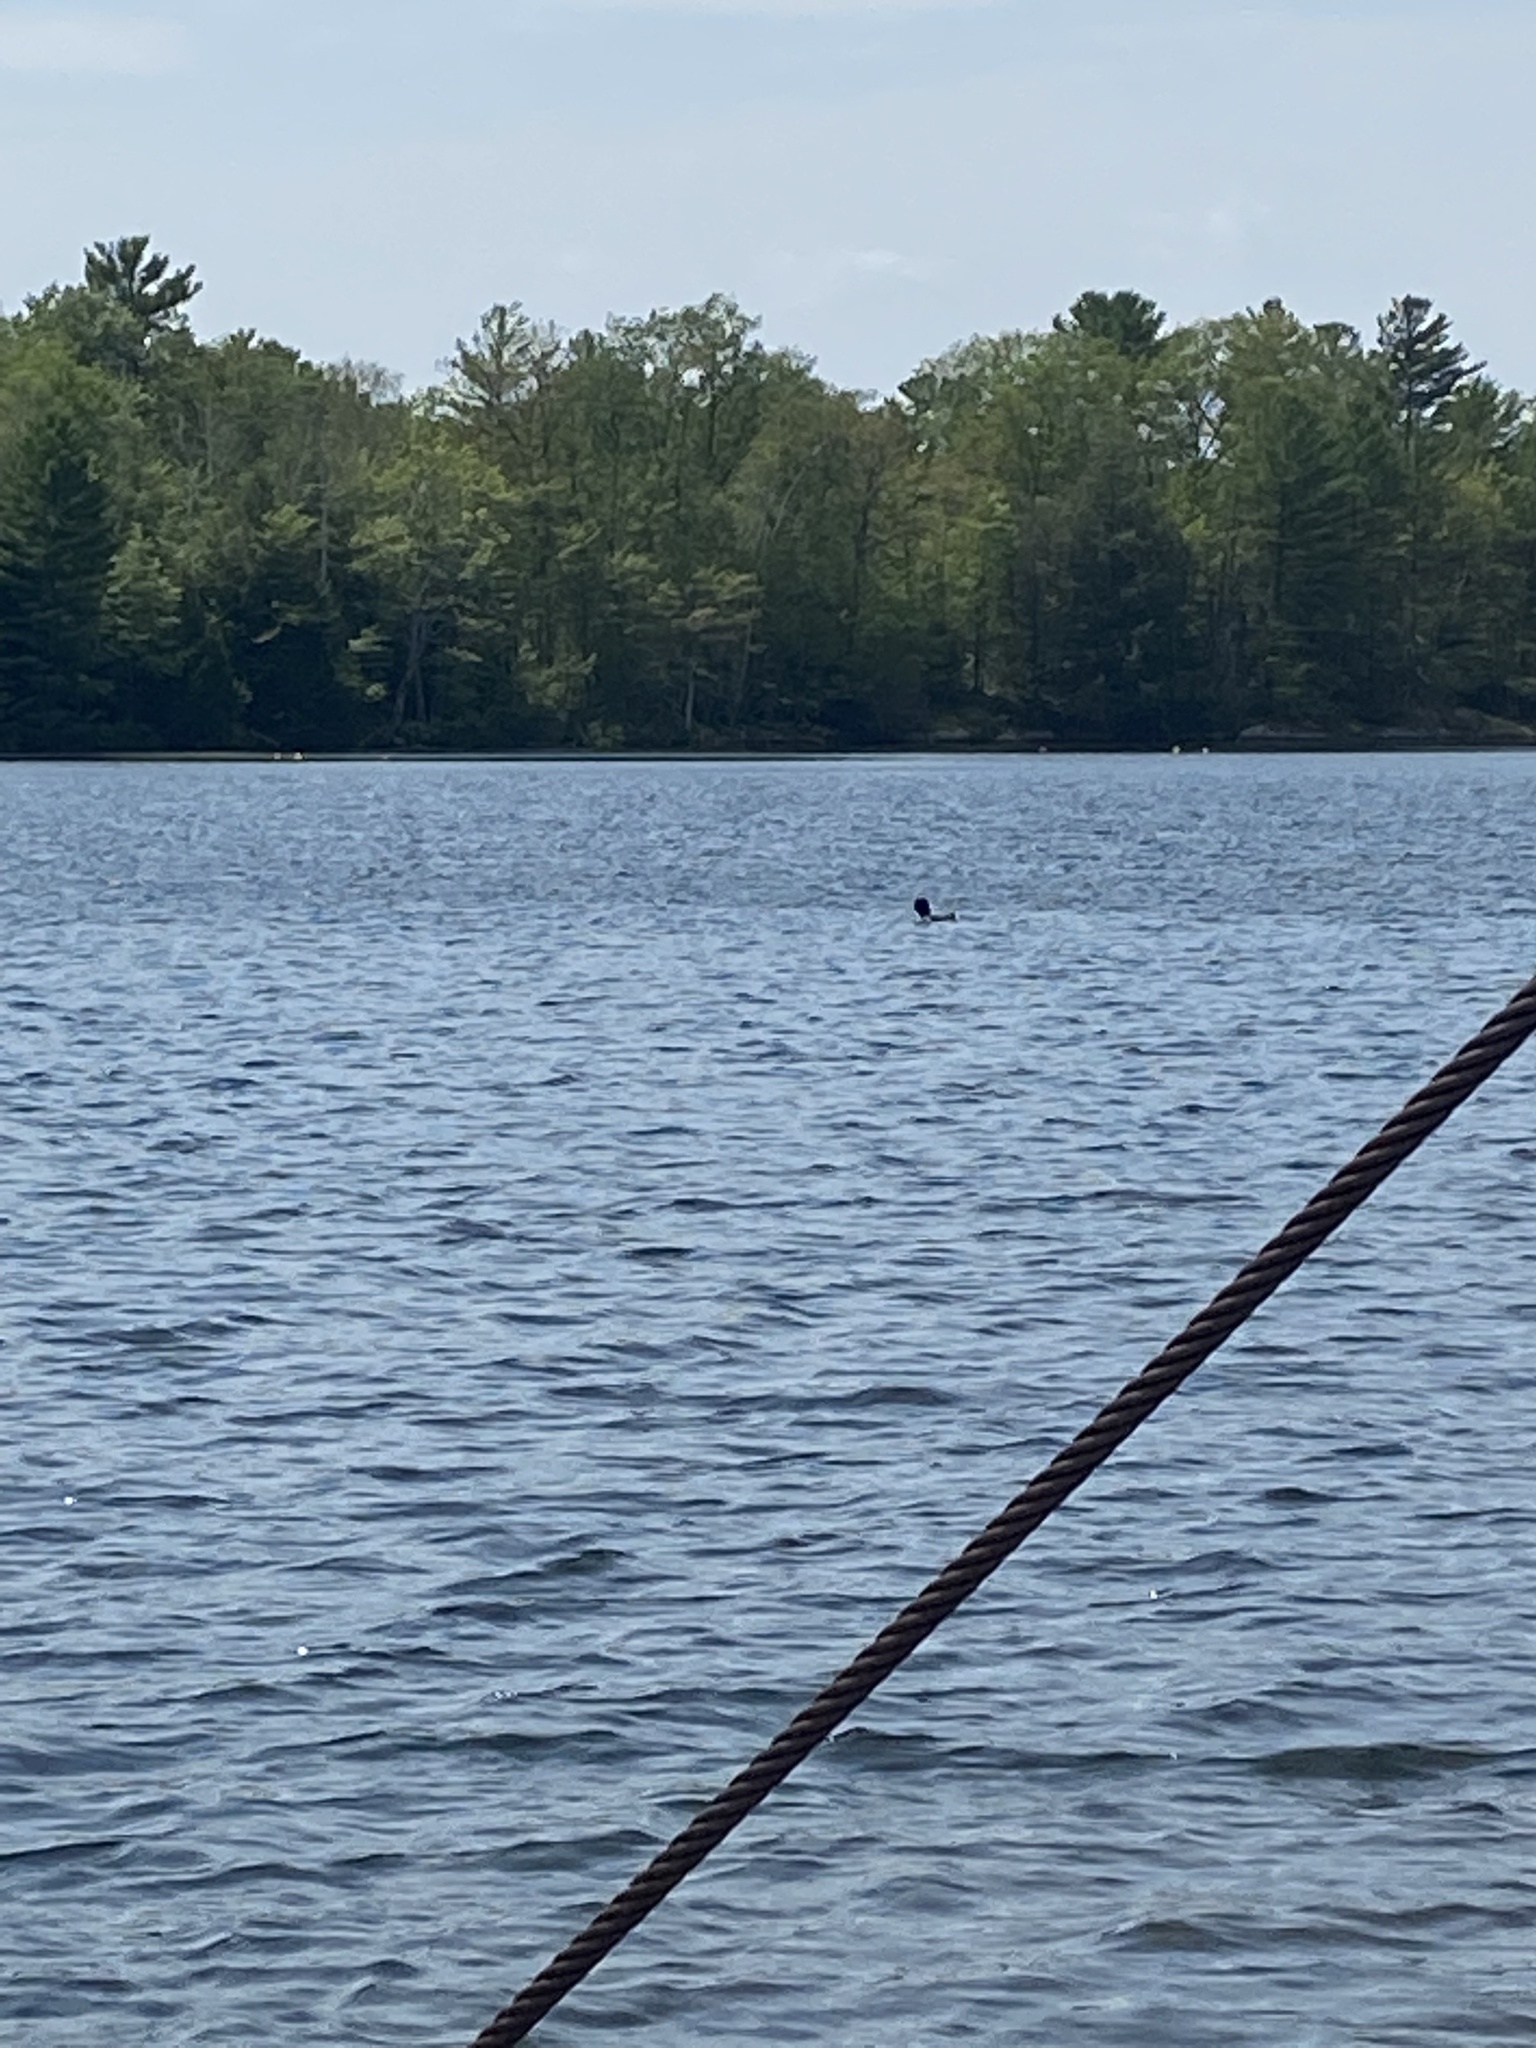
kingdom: Animalia
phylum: Chordata
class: Aves
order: Gaviiformes
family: Gaviidae
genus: Gavia
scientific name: Gavia immer
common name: Common loon
